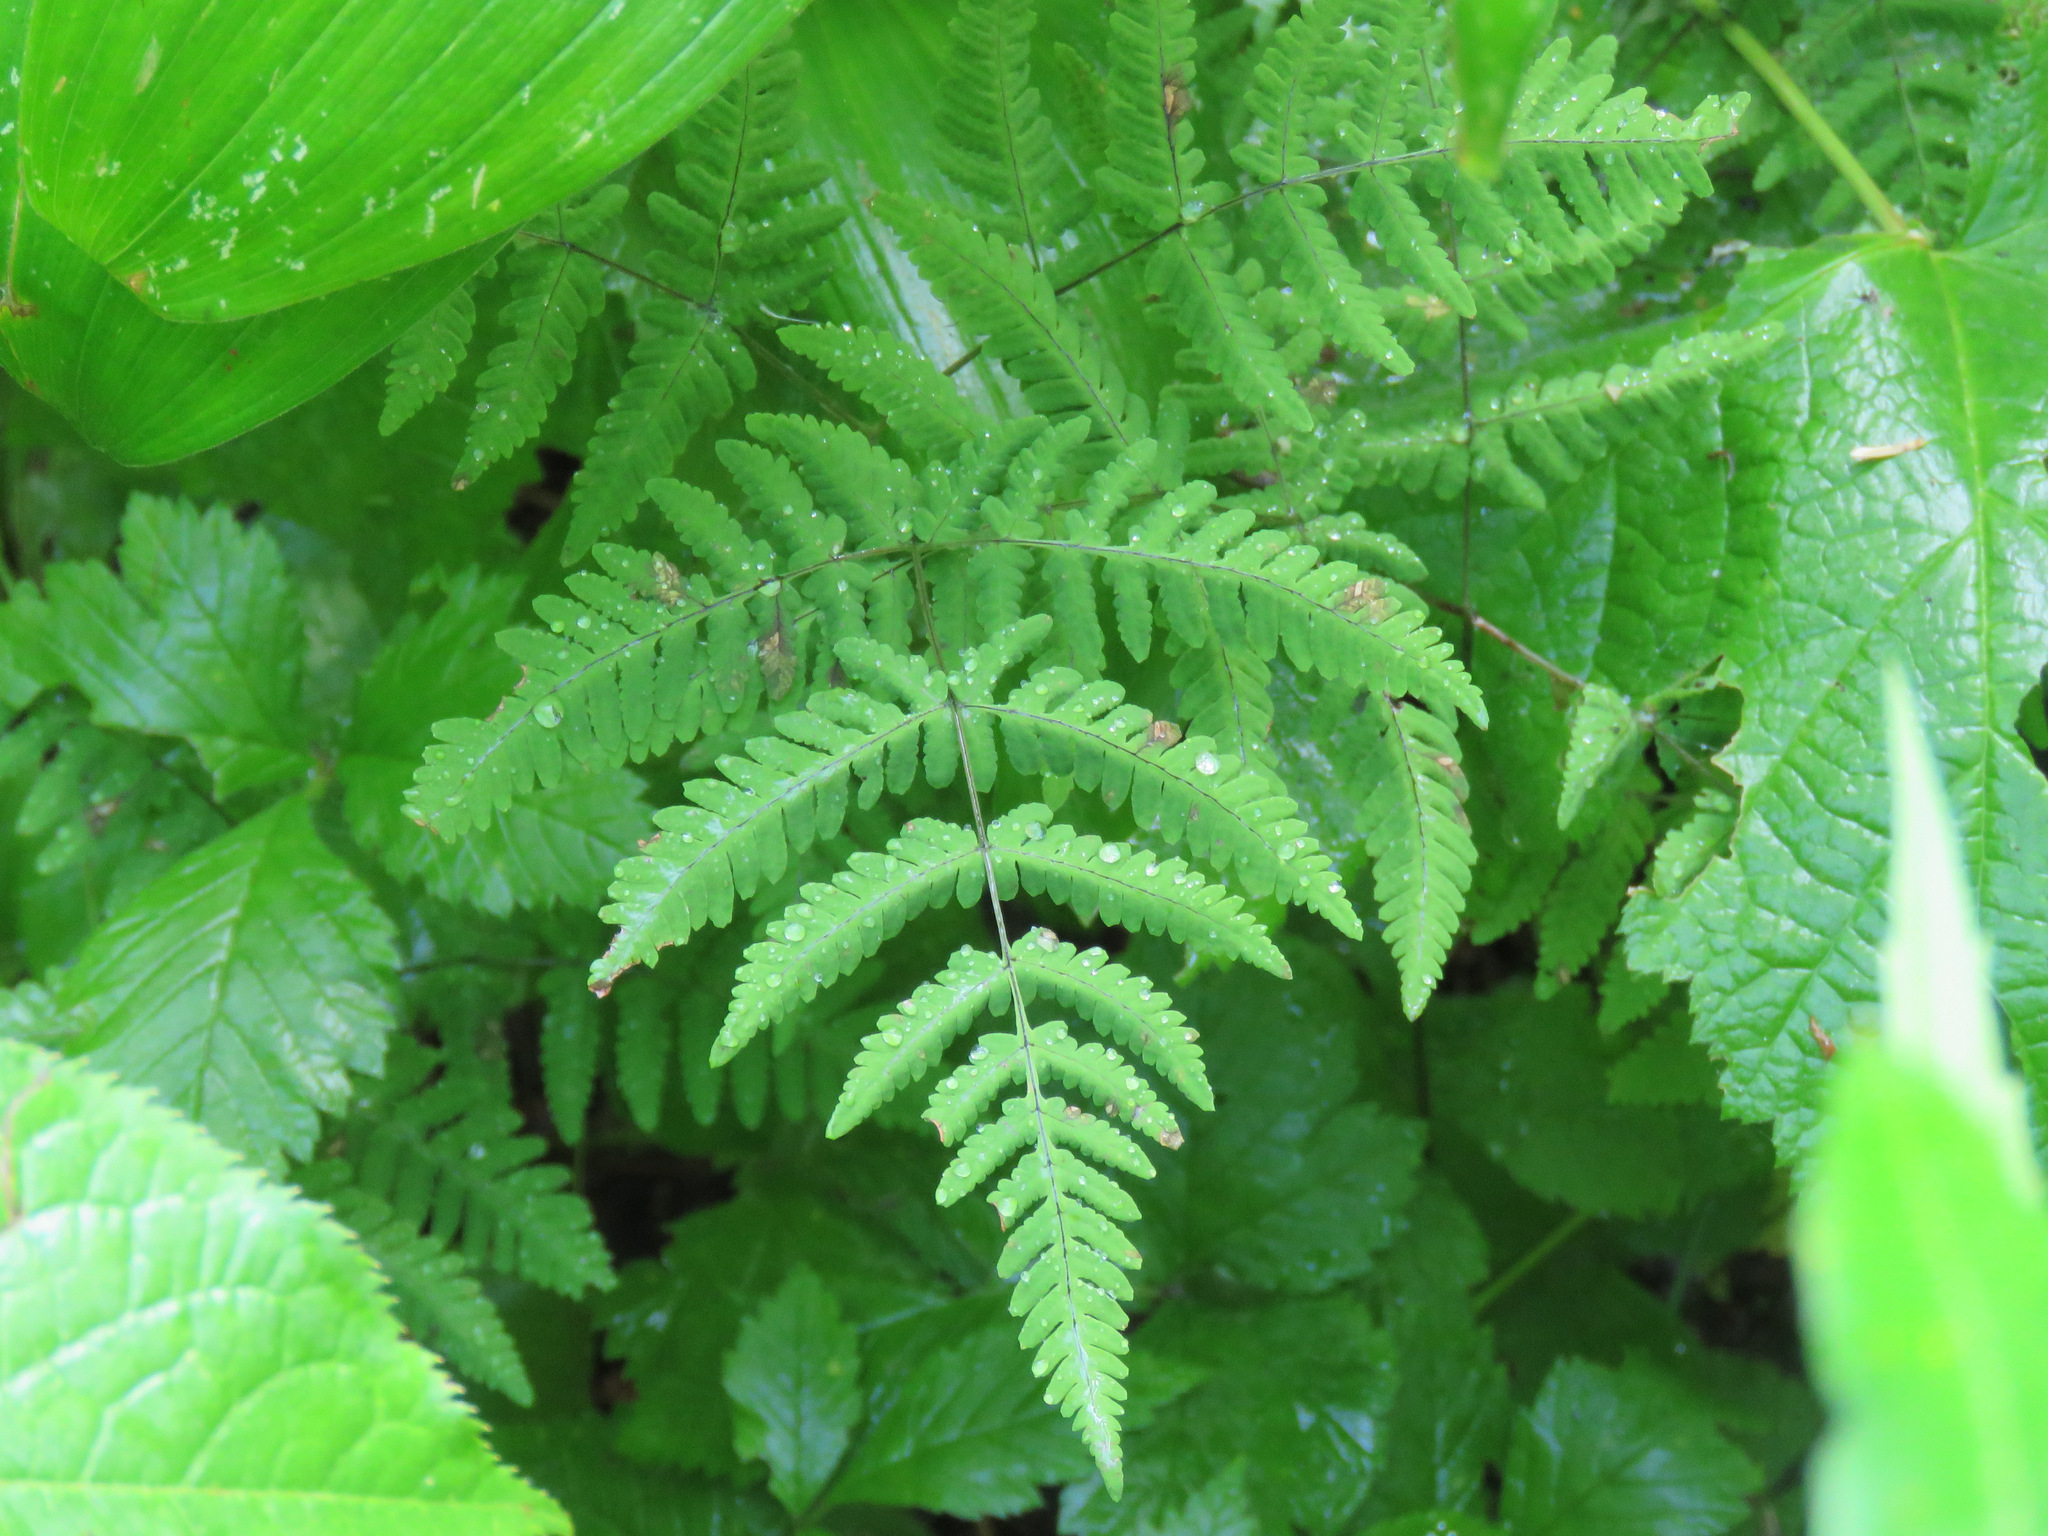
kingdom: Plantae
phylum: Tracheophyta
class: Polypodiopsida
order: Polypodiales
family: Cystopteridaceae
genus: Gymnocarpium
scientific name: Gymnocarpium dryopteris
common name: Oak fern
